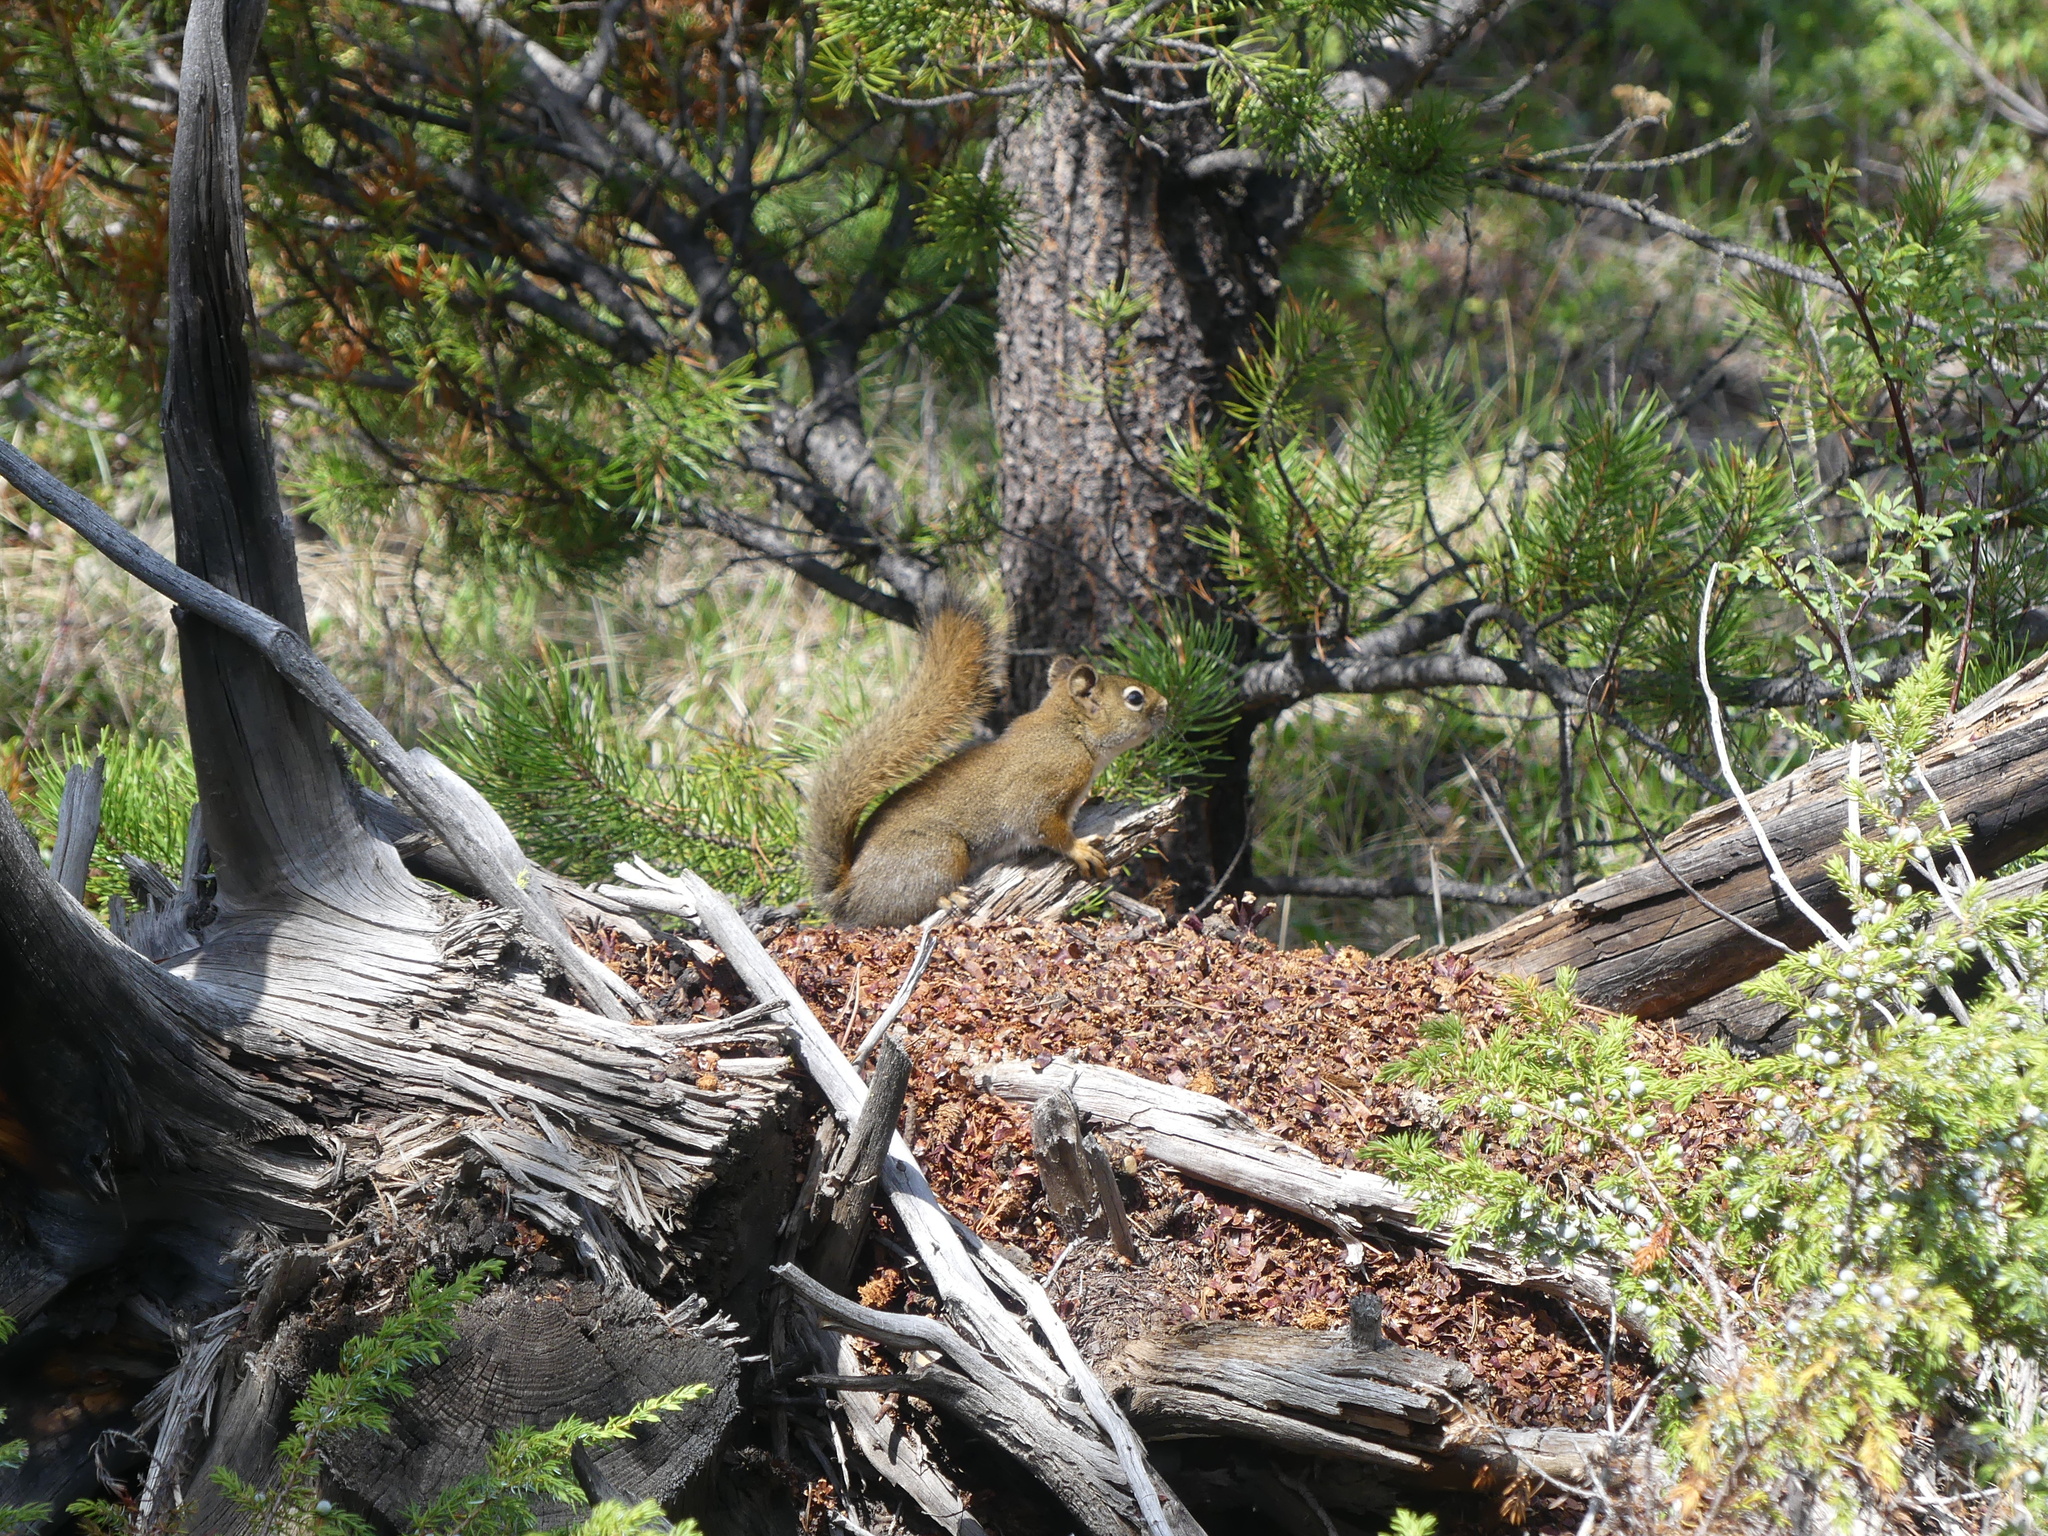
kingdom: Animalia
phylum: Chordata
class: Mammalia
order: Rodentia
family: Sciuridae
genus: Tamiasciurus
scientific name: Tamiasciurus hudsonicus
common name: Red squirrel
